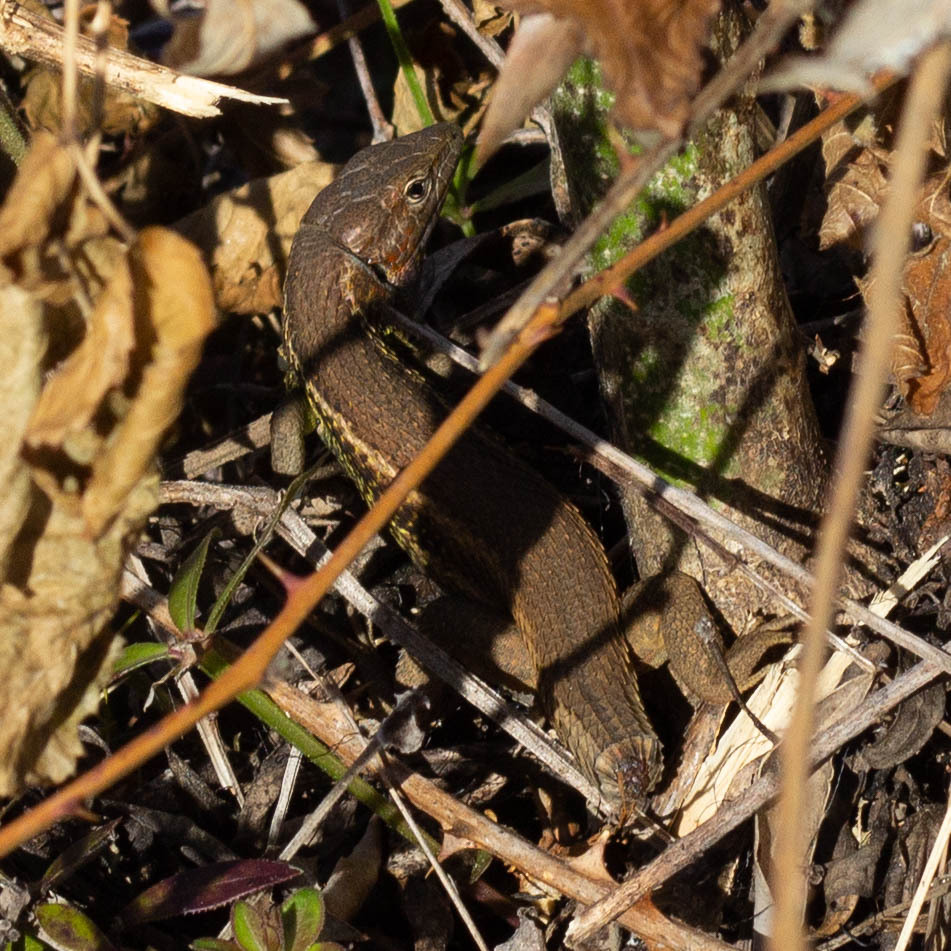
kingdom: Animalia
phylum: Chordata
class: Squamata
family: Lacertidae
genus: Psammodromus
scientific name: Psammodromus algirus
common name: Algerian psammodromus
